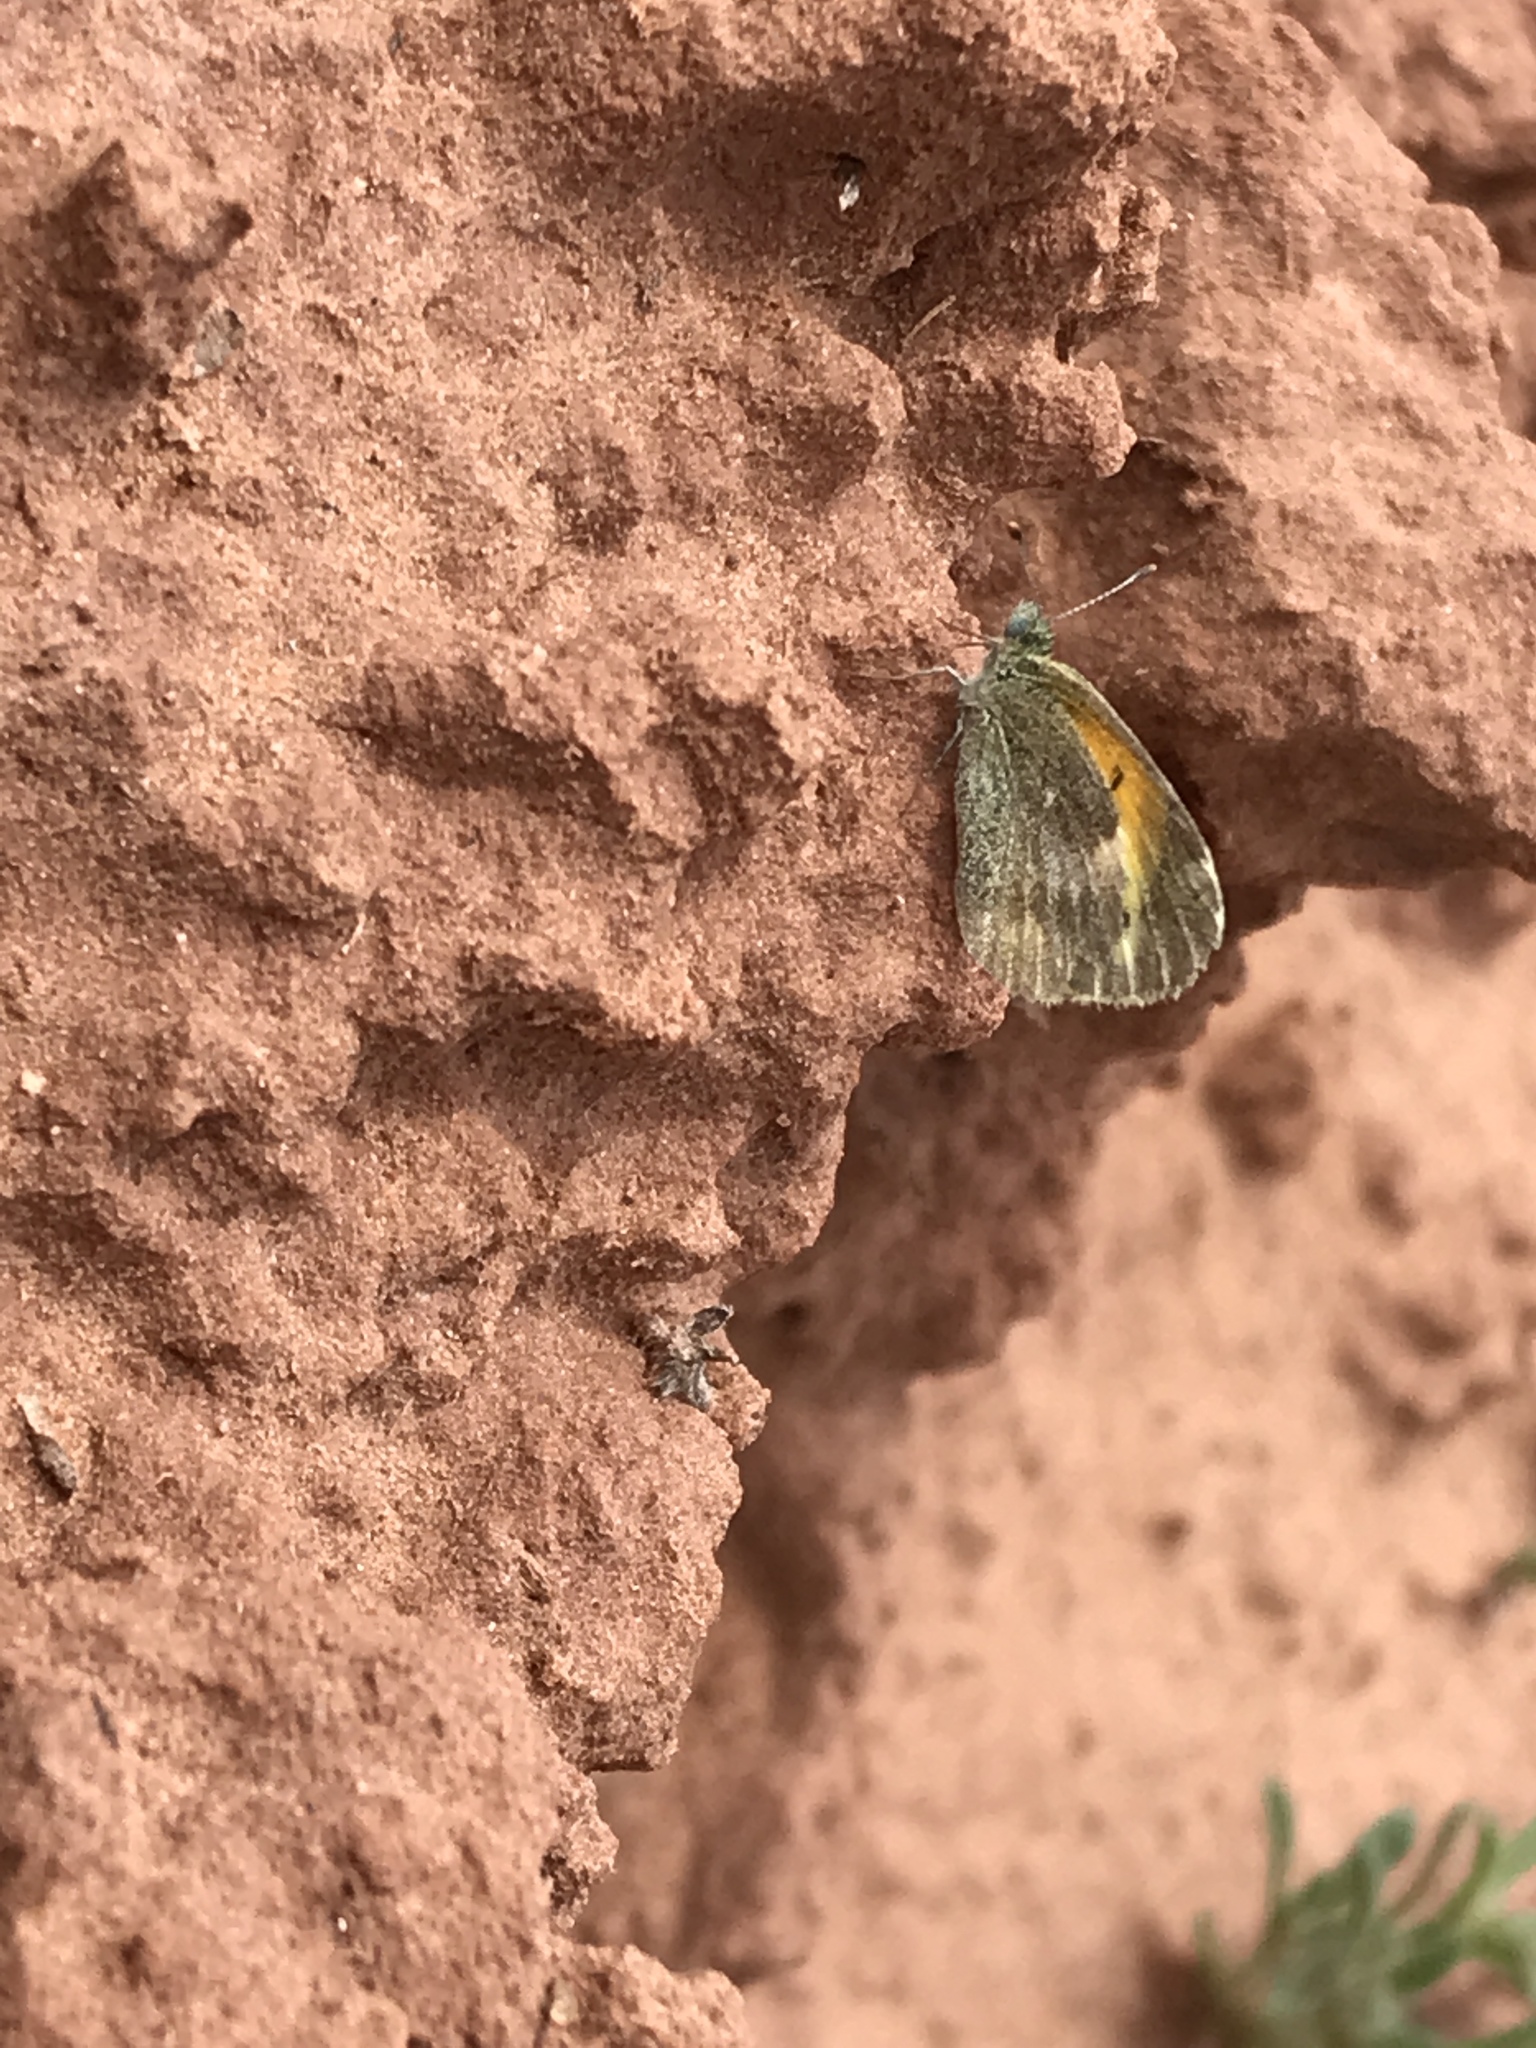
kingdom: Animalia
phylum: Arthropoda
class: Insecta
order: Lepidoptera
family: Pieridae
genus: Nathalis
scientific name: Nathalis iole
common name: Dainty sulphur
